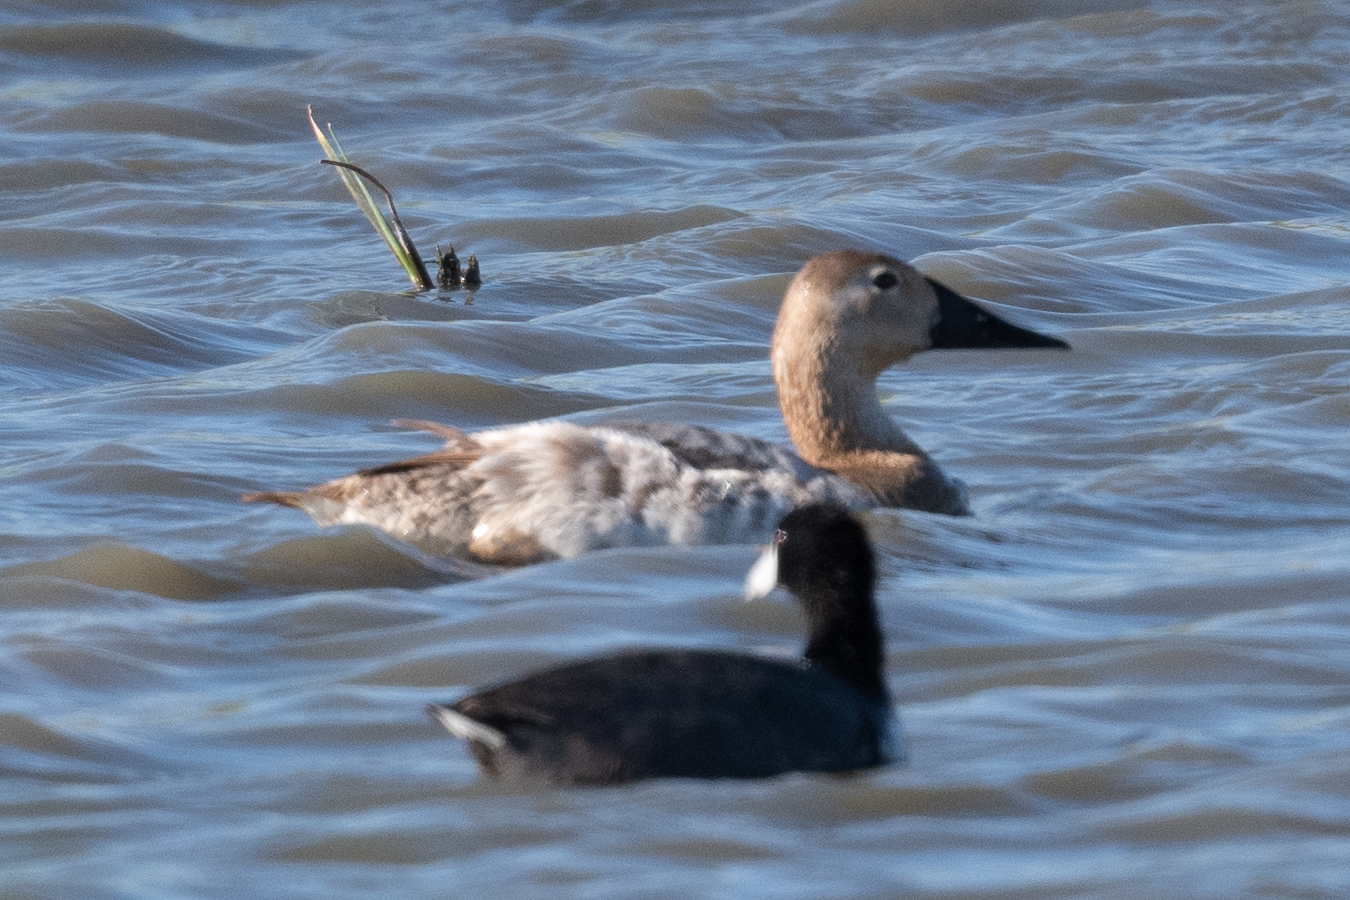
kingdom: Animalia
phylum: Chordata
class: Aves
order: Anseriformes
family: Anatidae
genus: Aythya
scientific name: Aythya valisineria
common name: Canvasback
